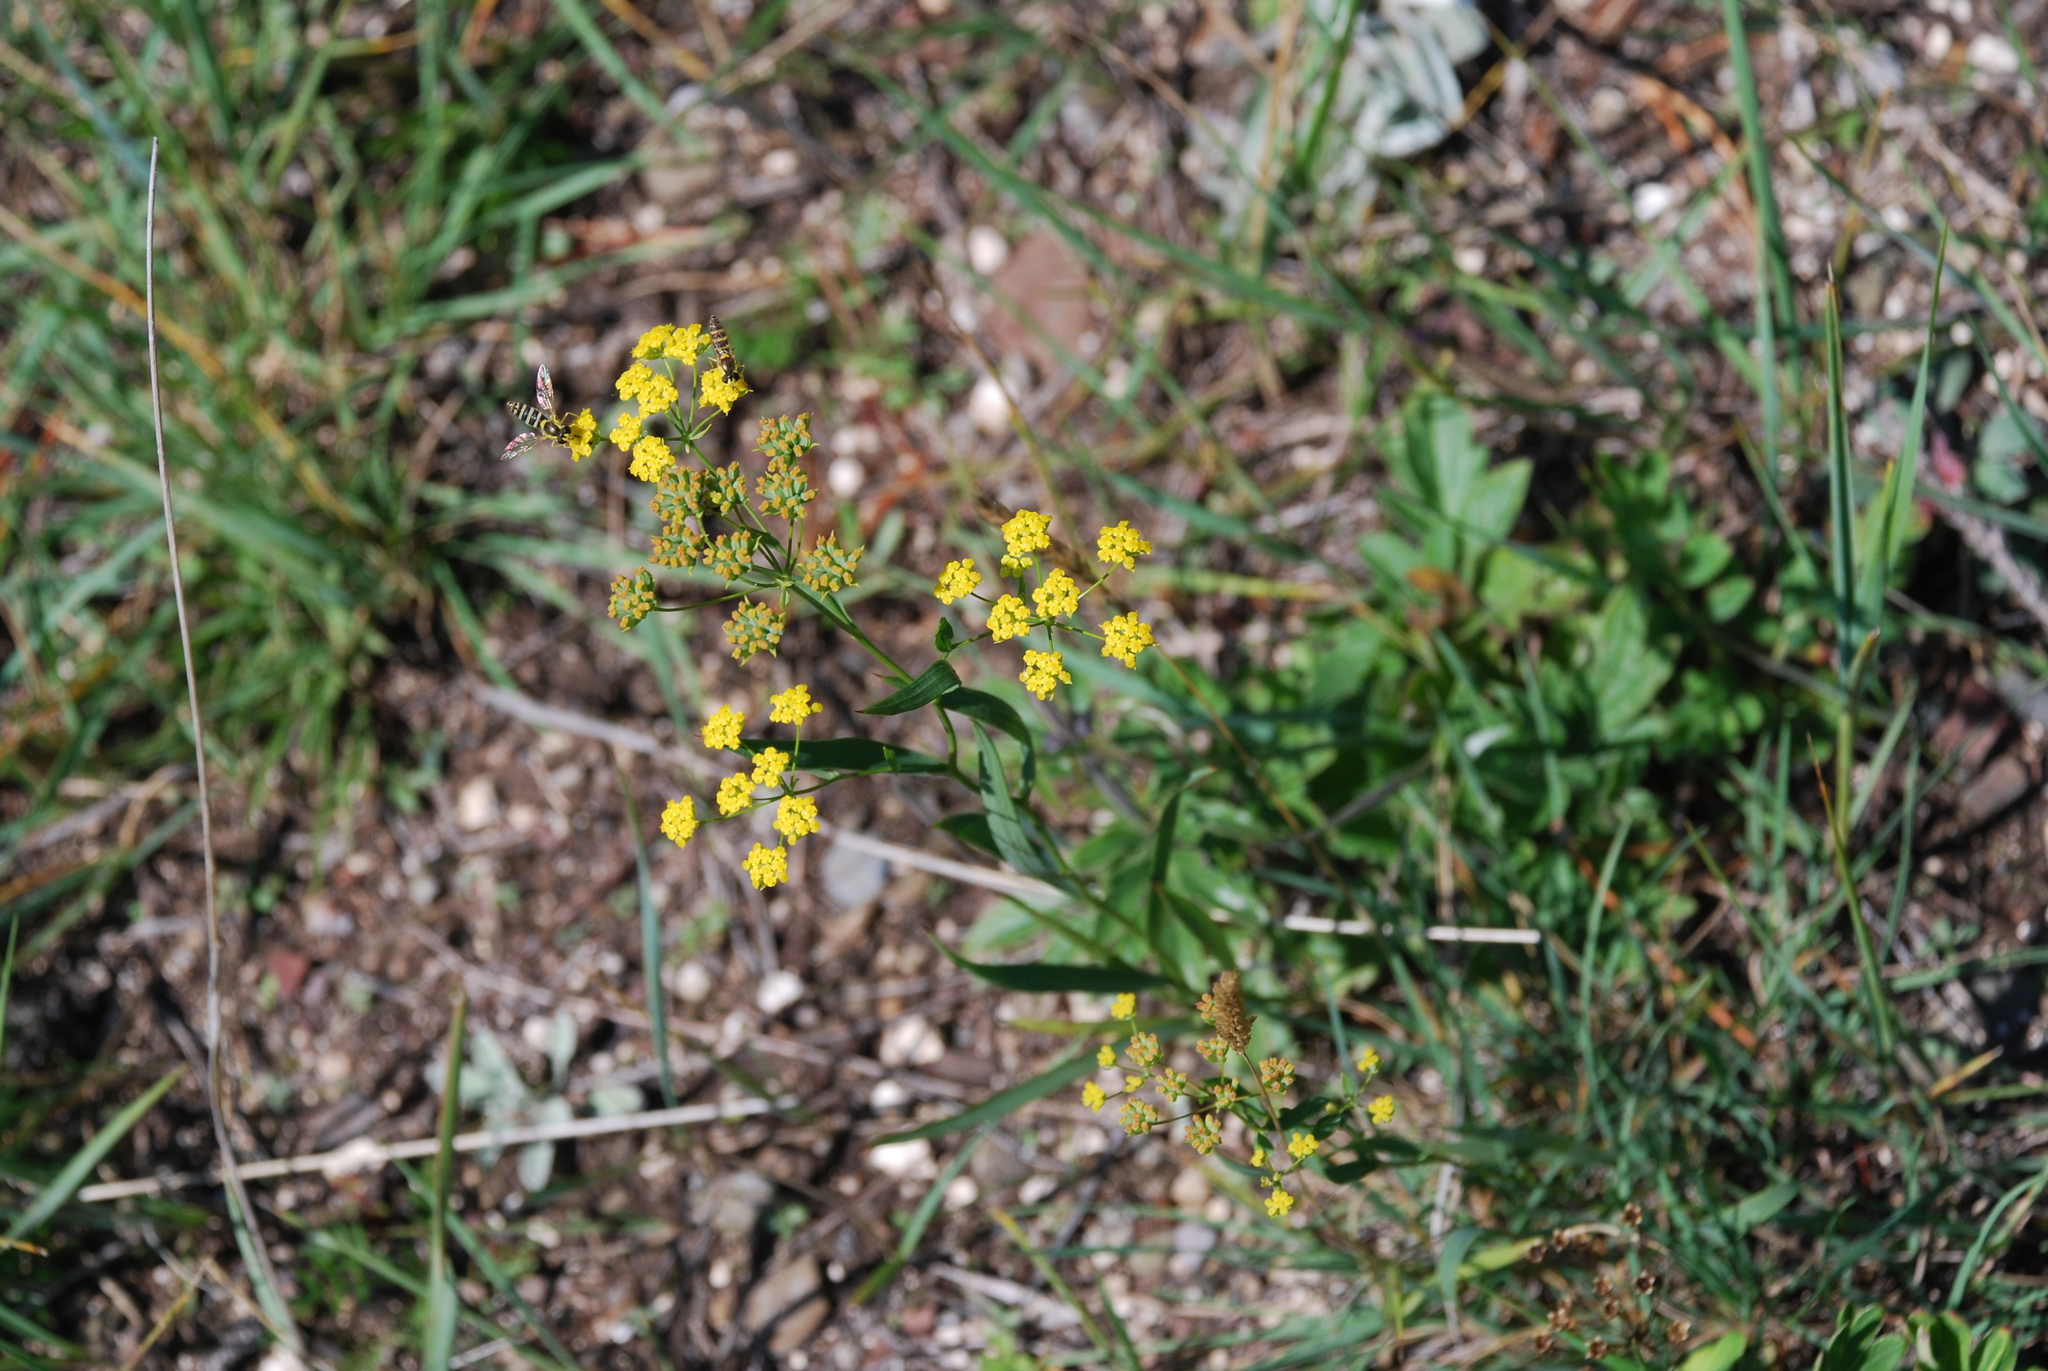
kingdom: Plantae
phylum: Tracheophyta
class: Magnoliopsida
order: Apiales
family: Apiaceae
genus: Bupleurum
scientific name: Bupleurum scorzonerifolium
